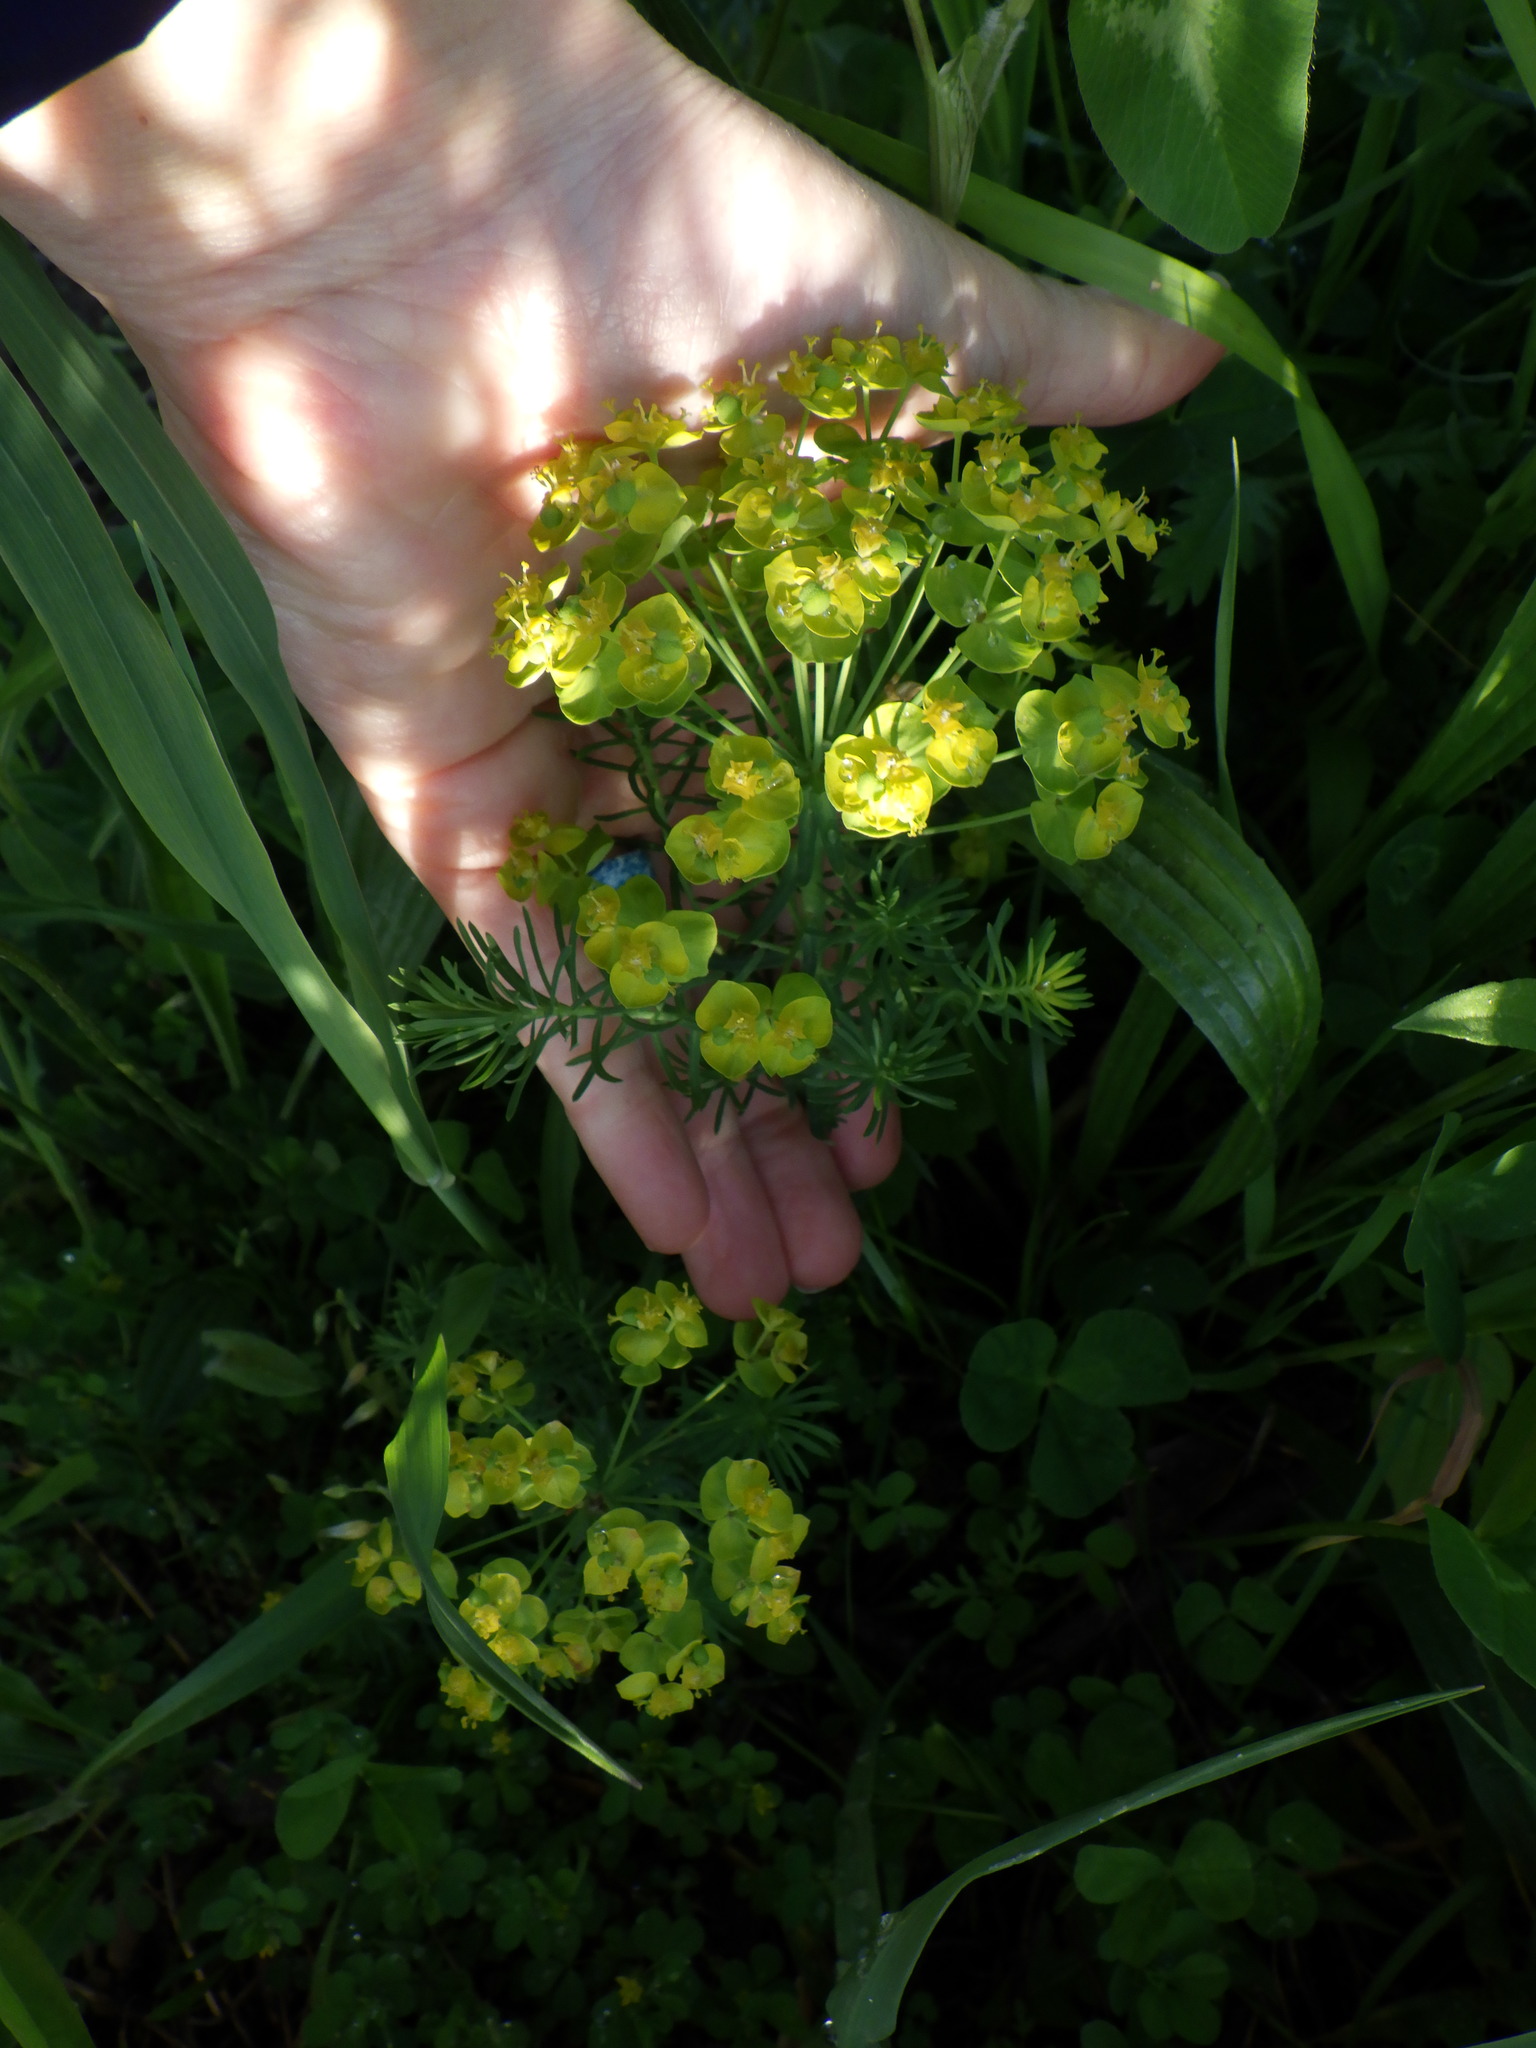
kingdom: Plantae
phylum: Tracheophyta
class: Magnoliopsida
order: Malpighiales
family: Euphorbiaceae
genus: Euphorbia
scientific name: Euphorbia cyparissias
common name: Cypress spurge
